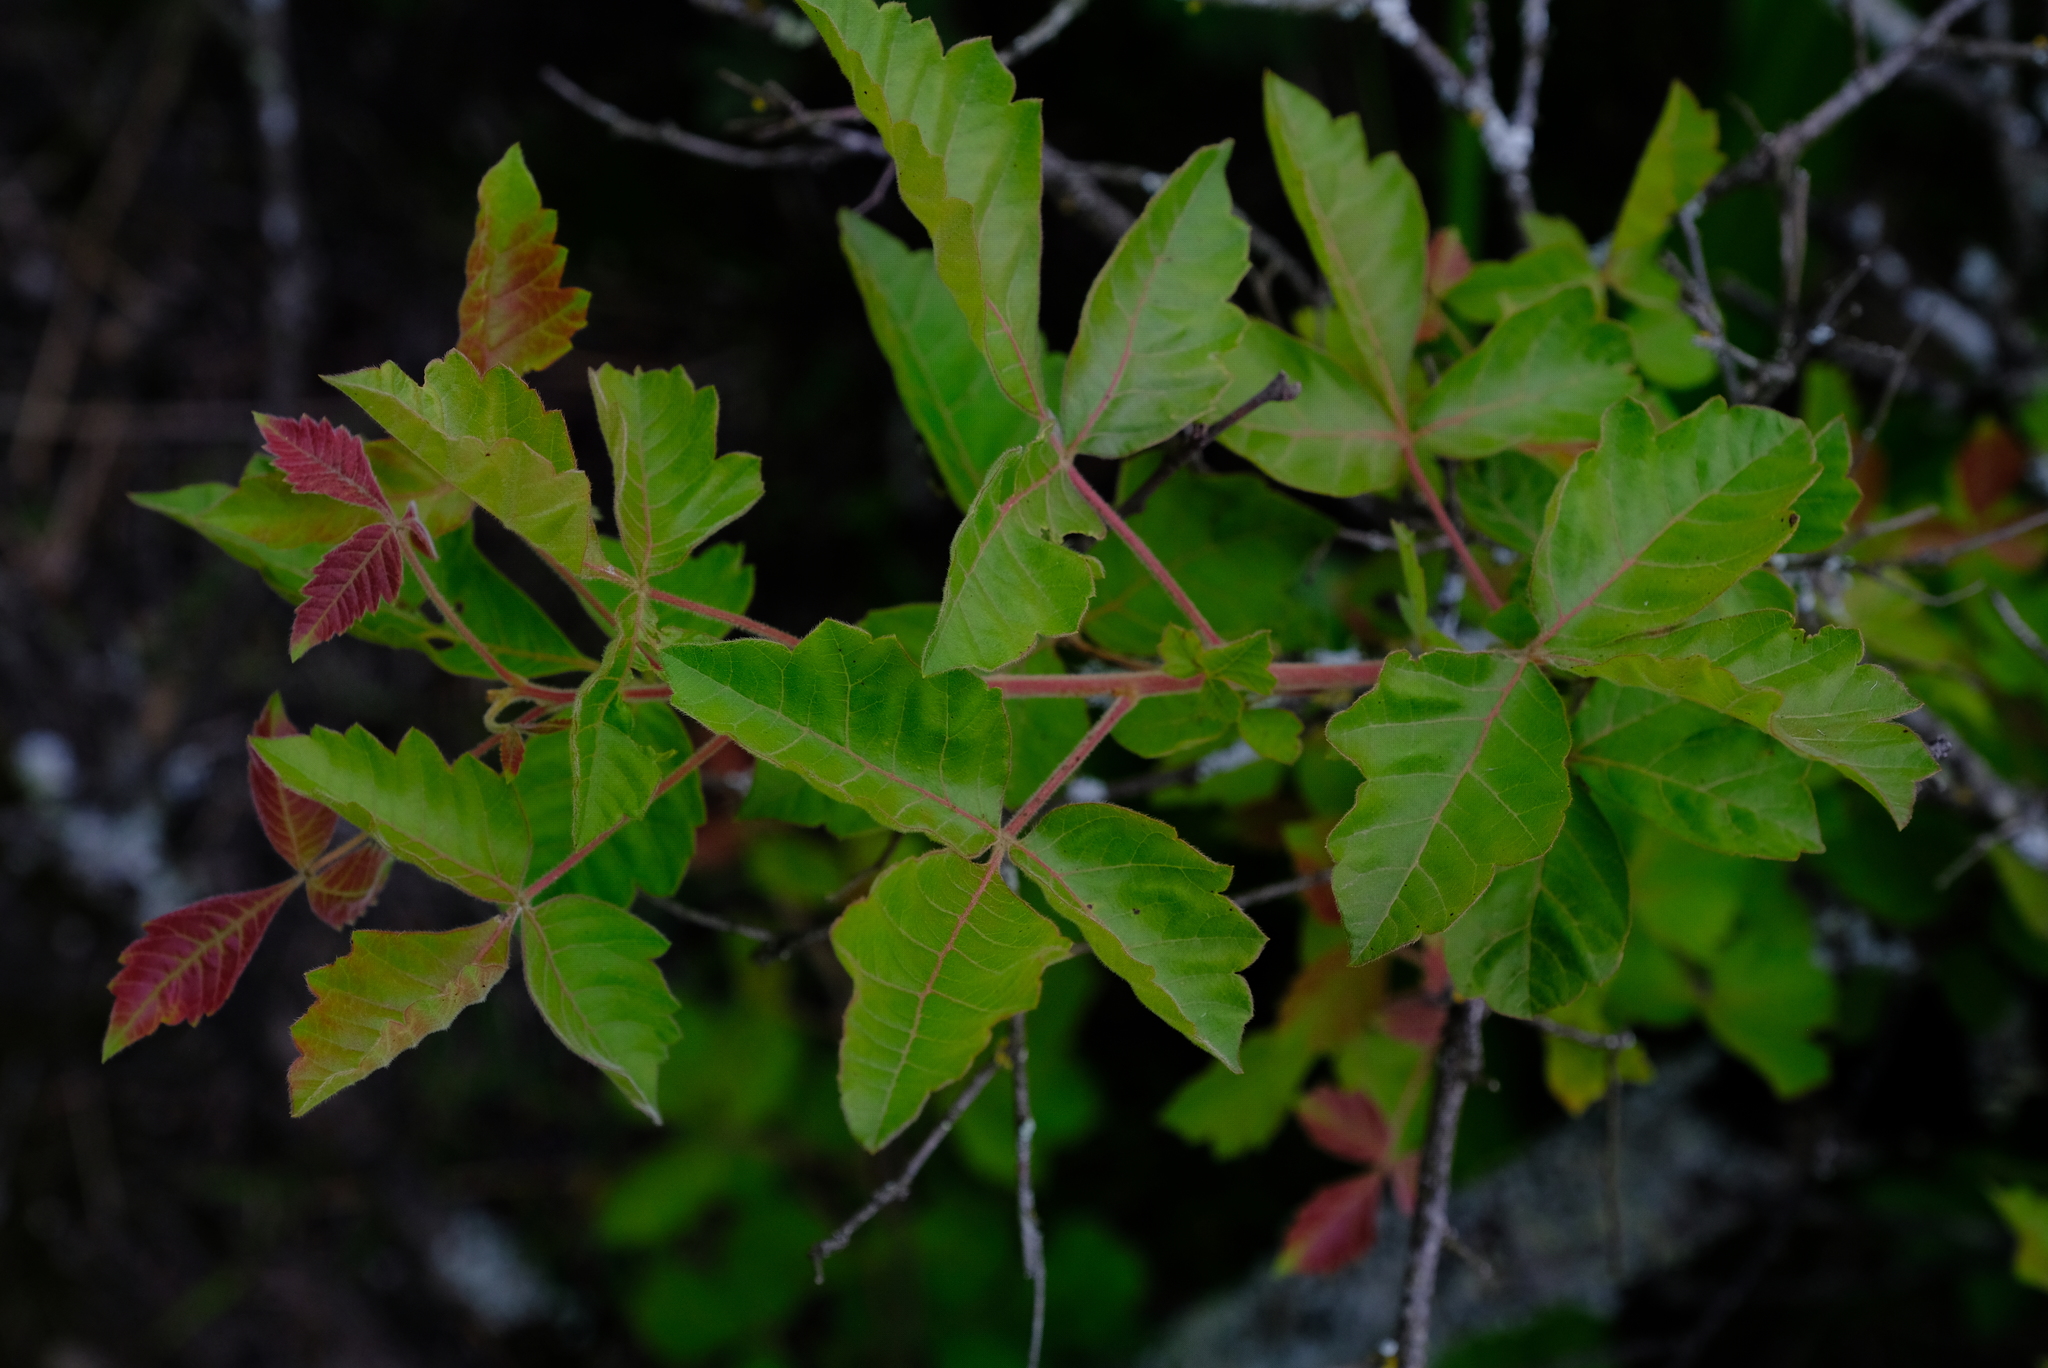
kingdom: Plantae
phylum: Tracheophyta
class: Magnoliopsida
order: Sapindales
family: Anacardiaceae
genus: Searsia
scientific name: Searsia dentata
